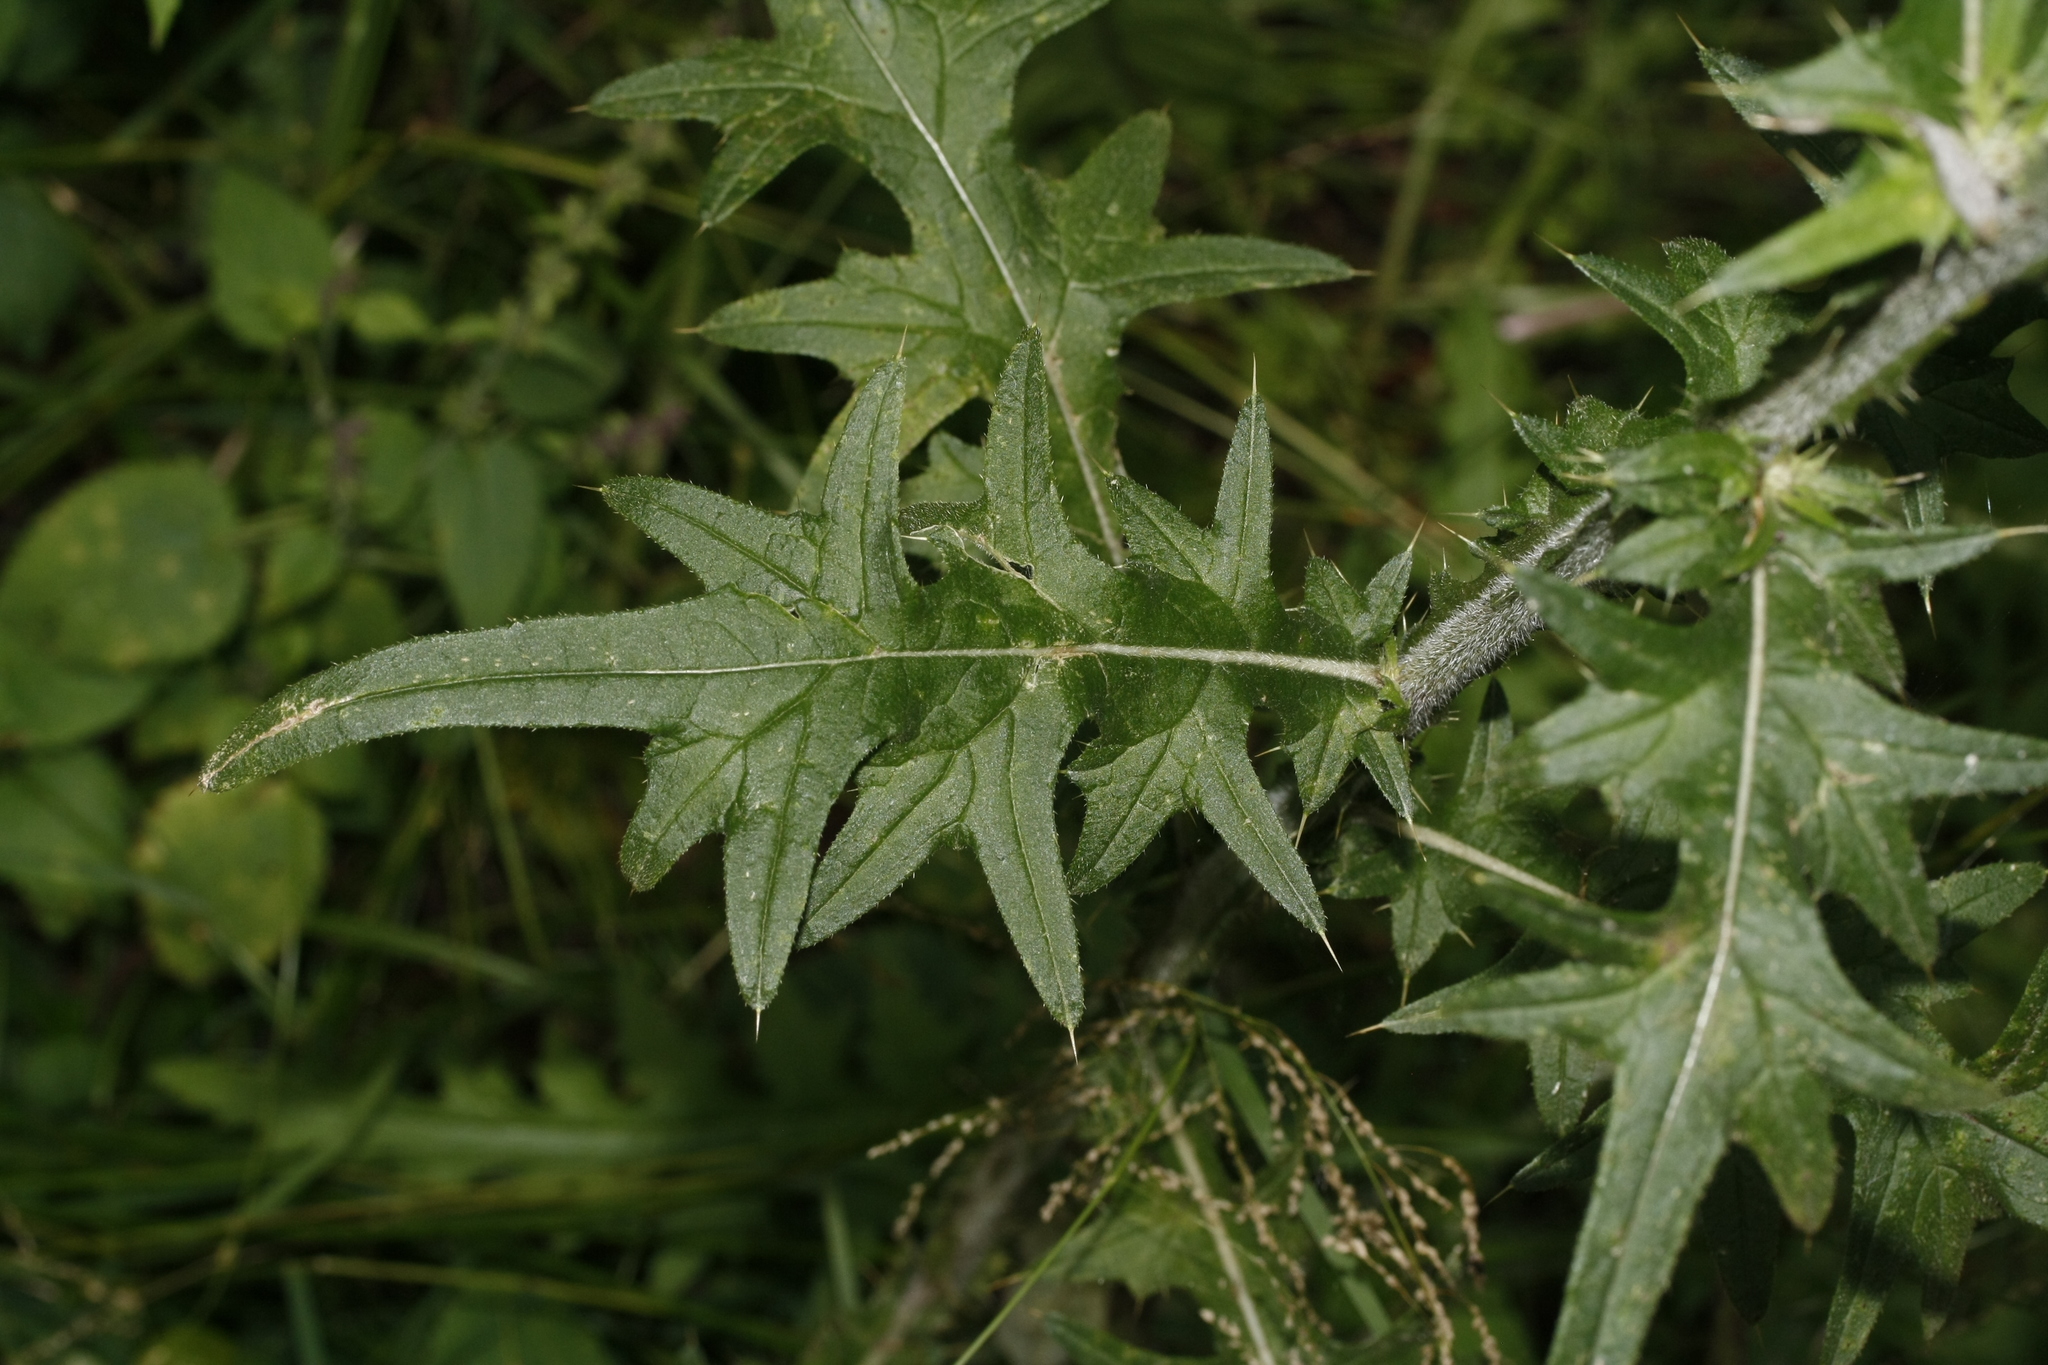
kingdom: Plantae
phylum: Tracheophyta
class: Magnoliopsida
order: Asterales
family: Asteraceae
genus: Cirsium
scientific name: Cirsium vulgare
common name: Bull thistle
